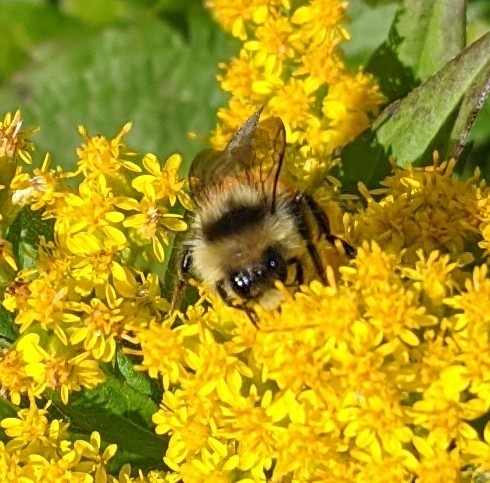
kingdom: Animalia
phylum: Arthropoda
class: Insecta
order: Hymenoptera
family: Apidae
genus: Bombus
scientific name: Bombus ternarius
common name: Tri-colored bumble bee
